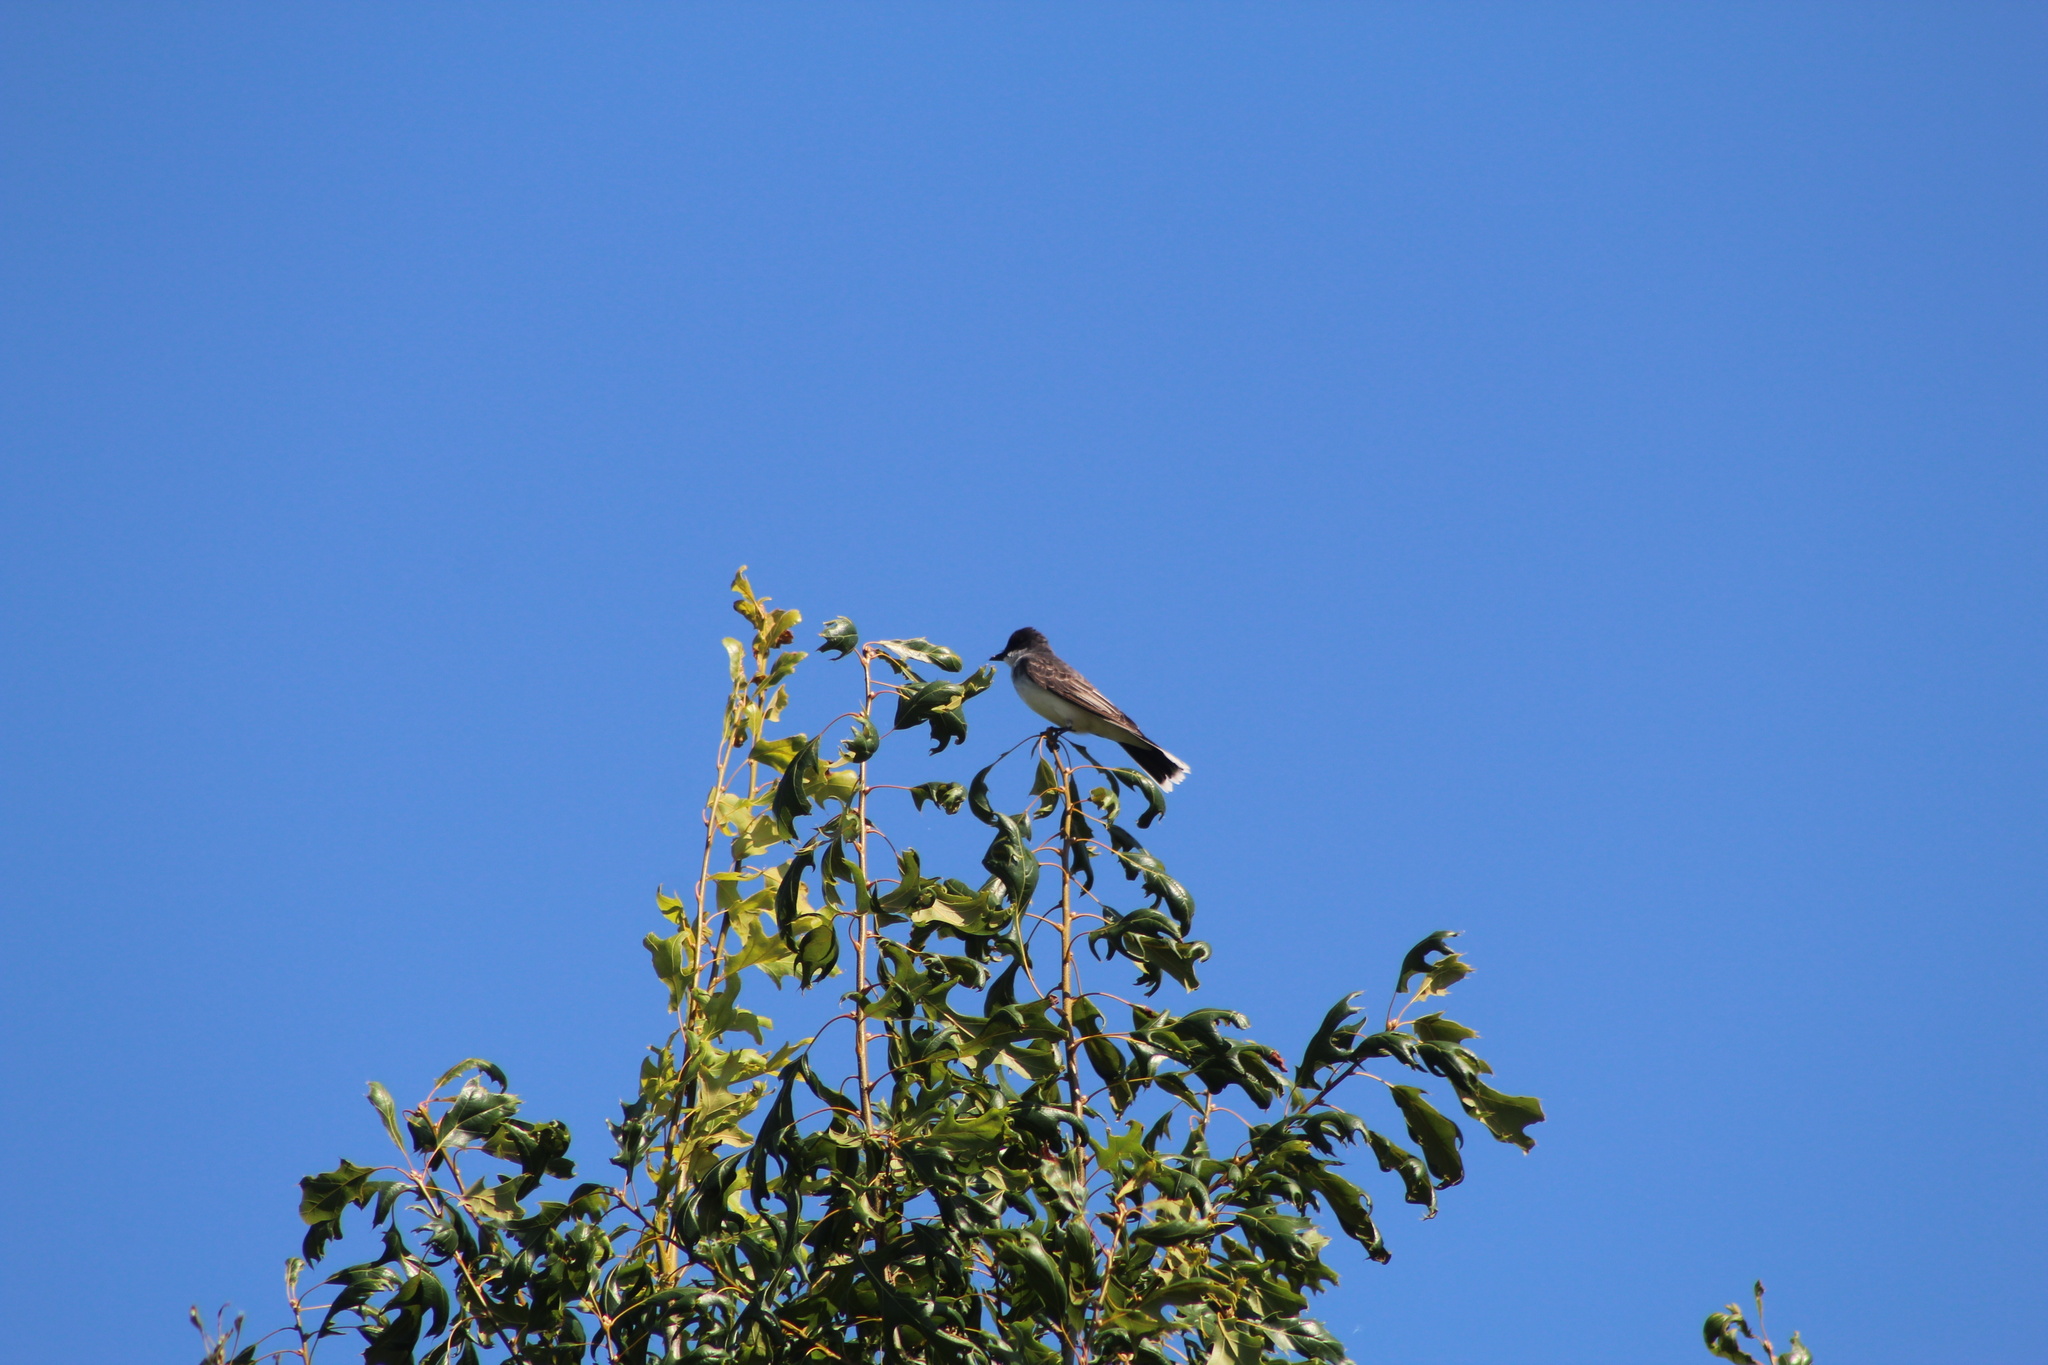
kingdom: Animalia
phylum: Chordata
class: Aves
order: Passeriformes
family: Tyrannidae
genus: Tyrannus
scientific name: Tyrannus tyrannus
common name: Eastern kingbird
